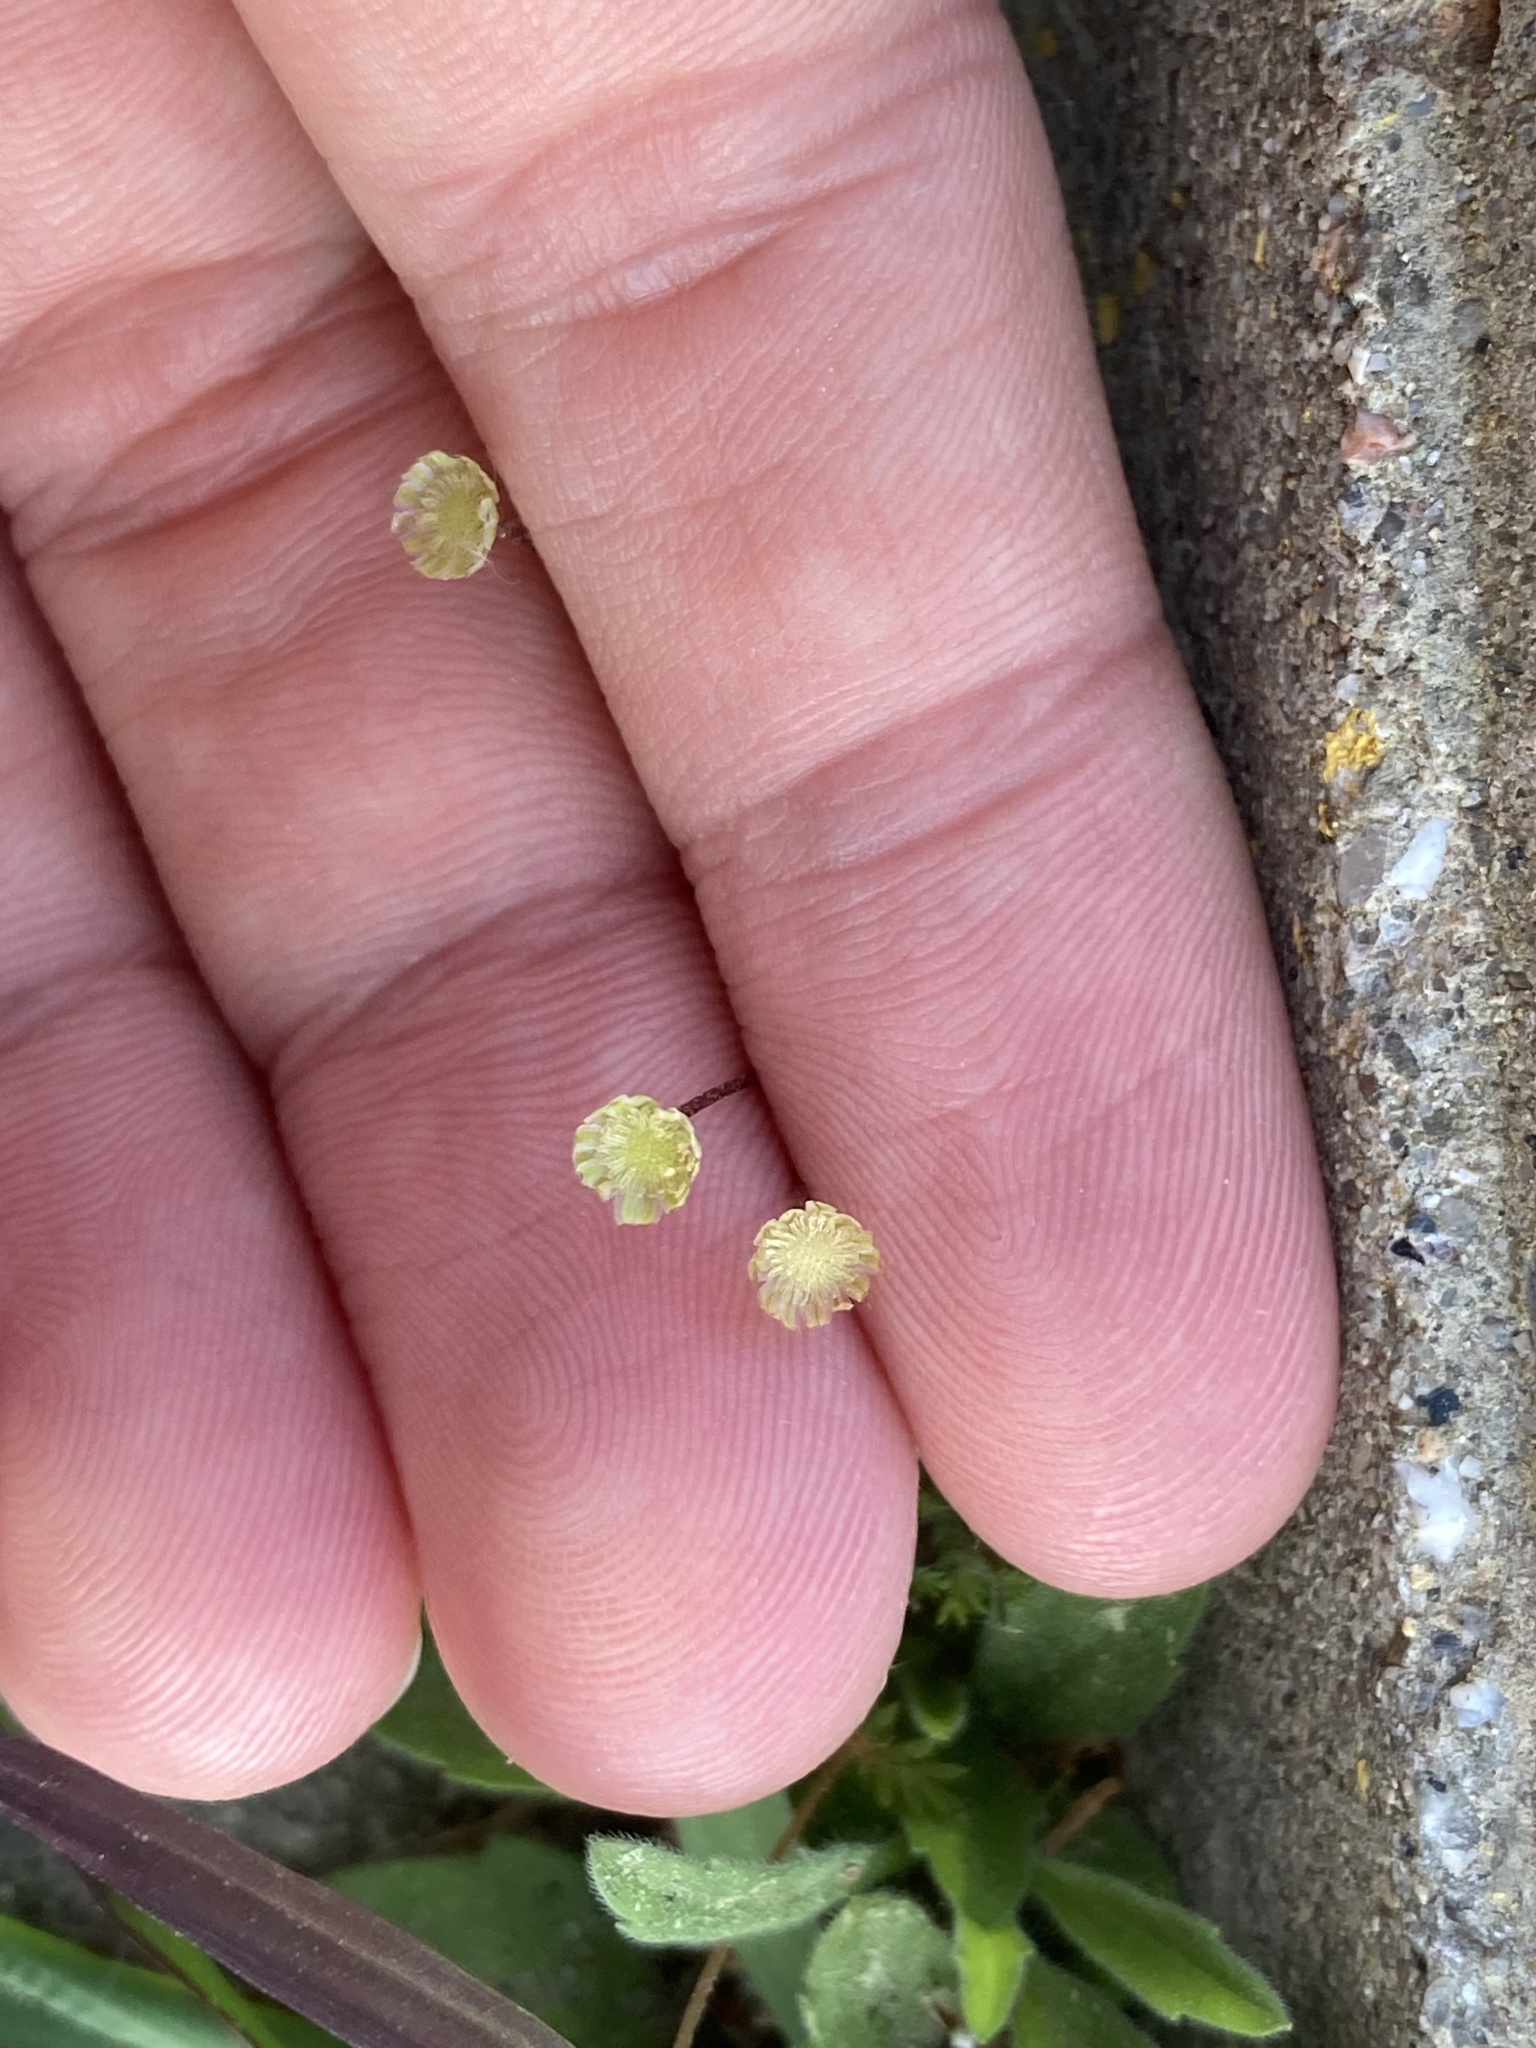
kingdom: Plantae
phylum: Tracheophyta
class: Magnoliopsida
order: Asterales
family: Asteraceae
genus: Cotula
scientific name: Cotula australis
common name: Australian waterbuttons
